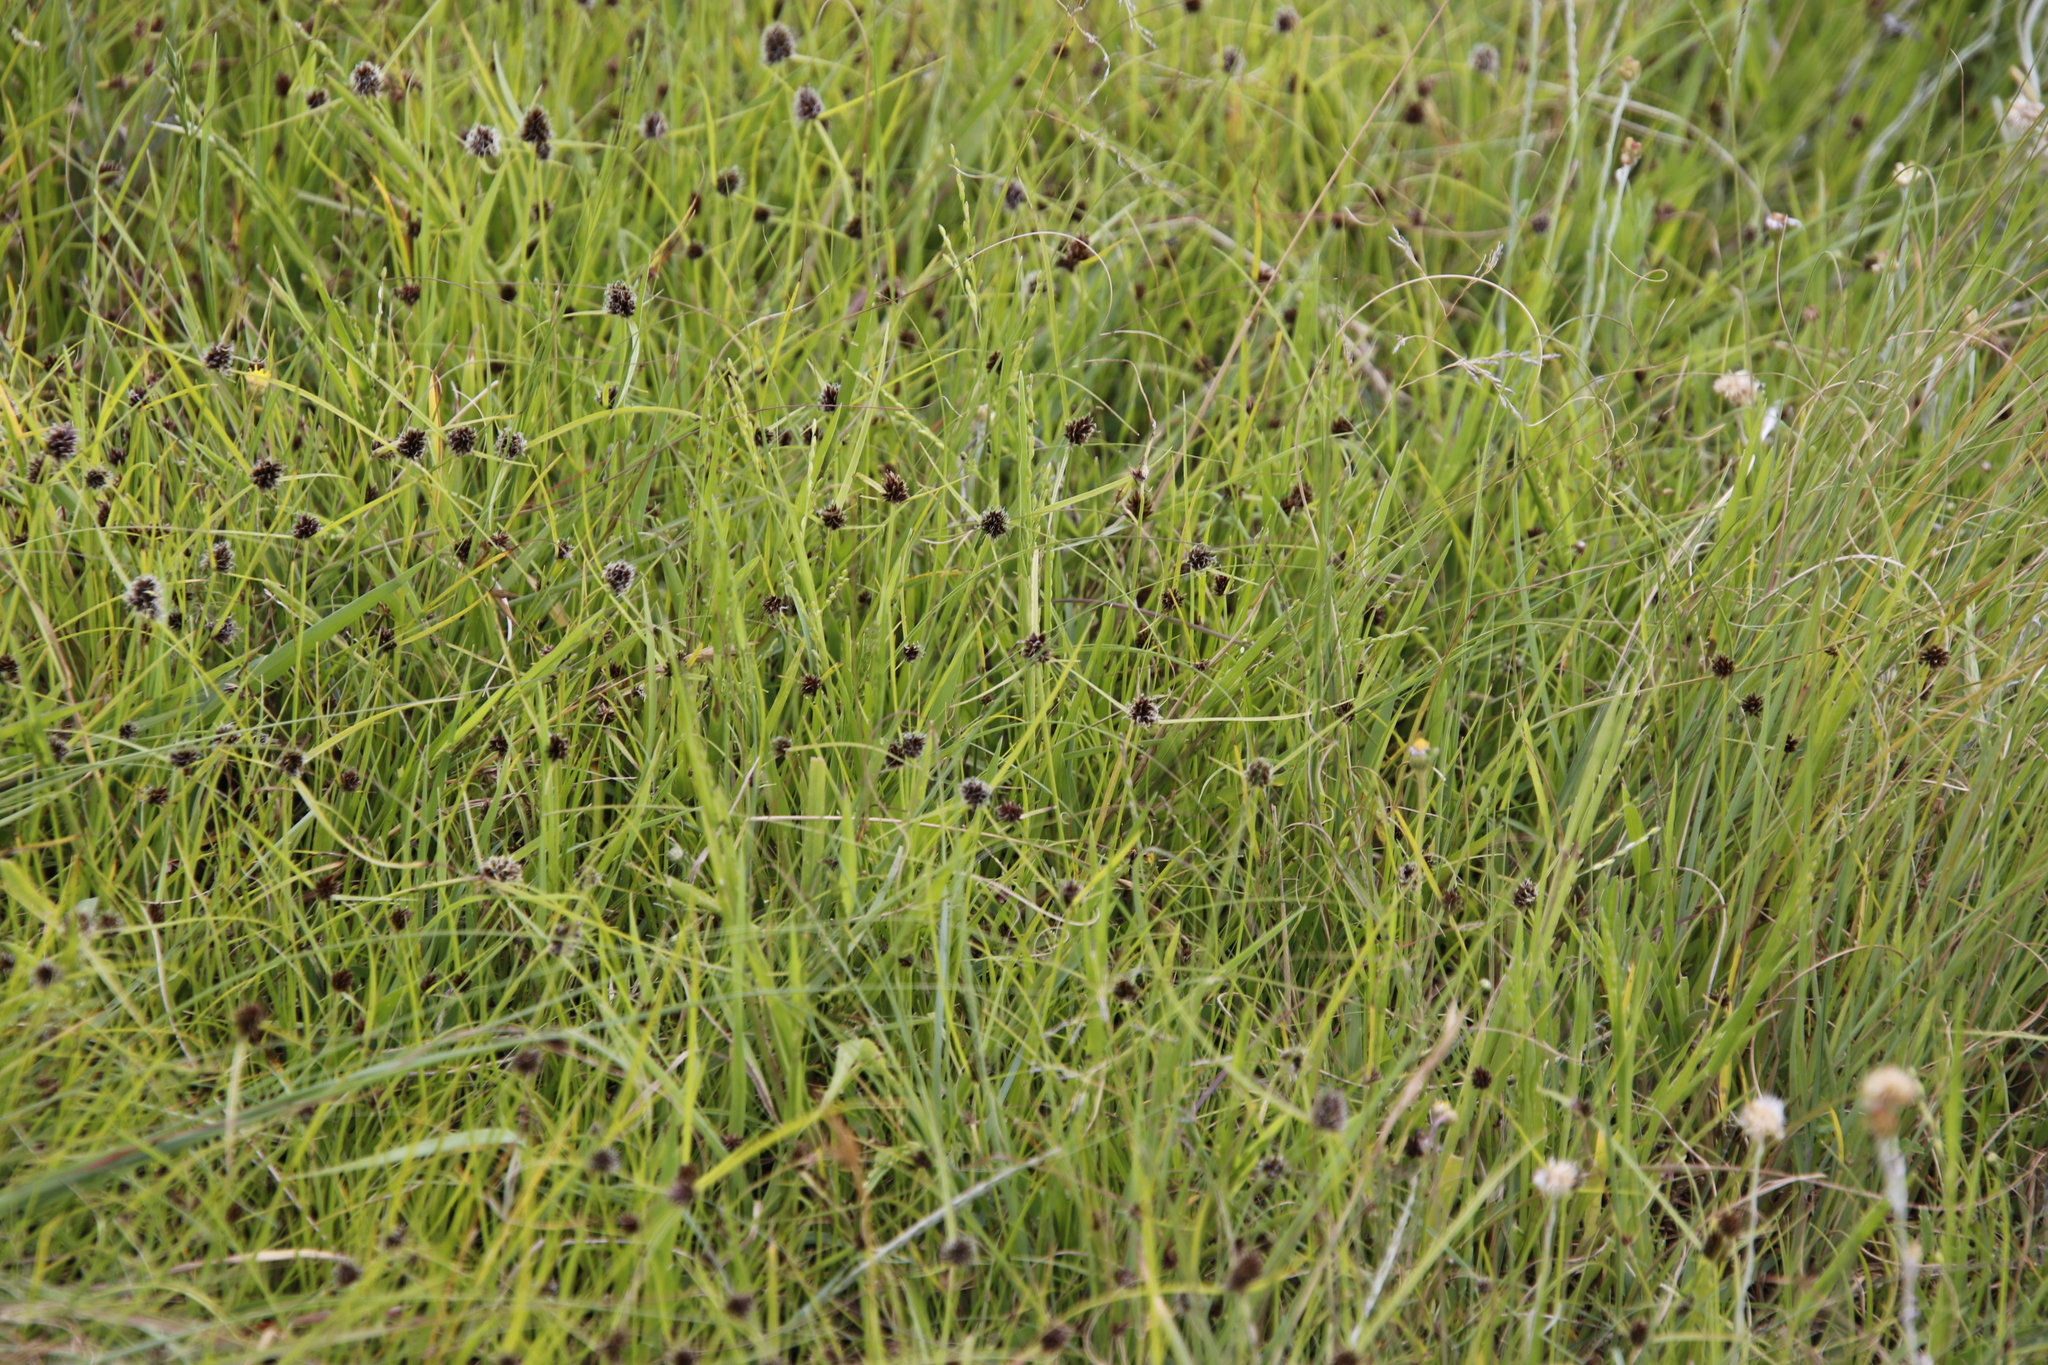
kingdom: Plantae
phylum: Tracheophyta
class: Liliopsida
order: Poales
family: Cyperaceae
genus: Cyperus
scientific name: Cyperus bracheilema
